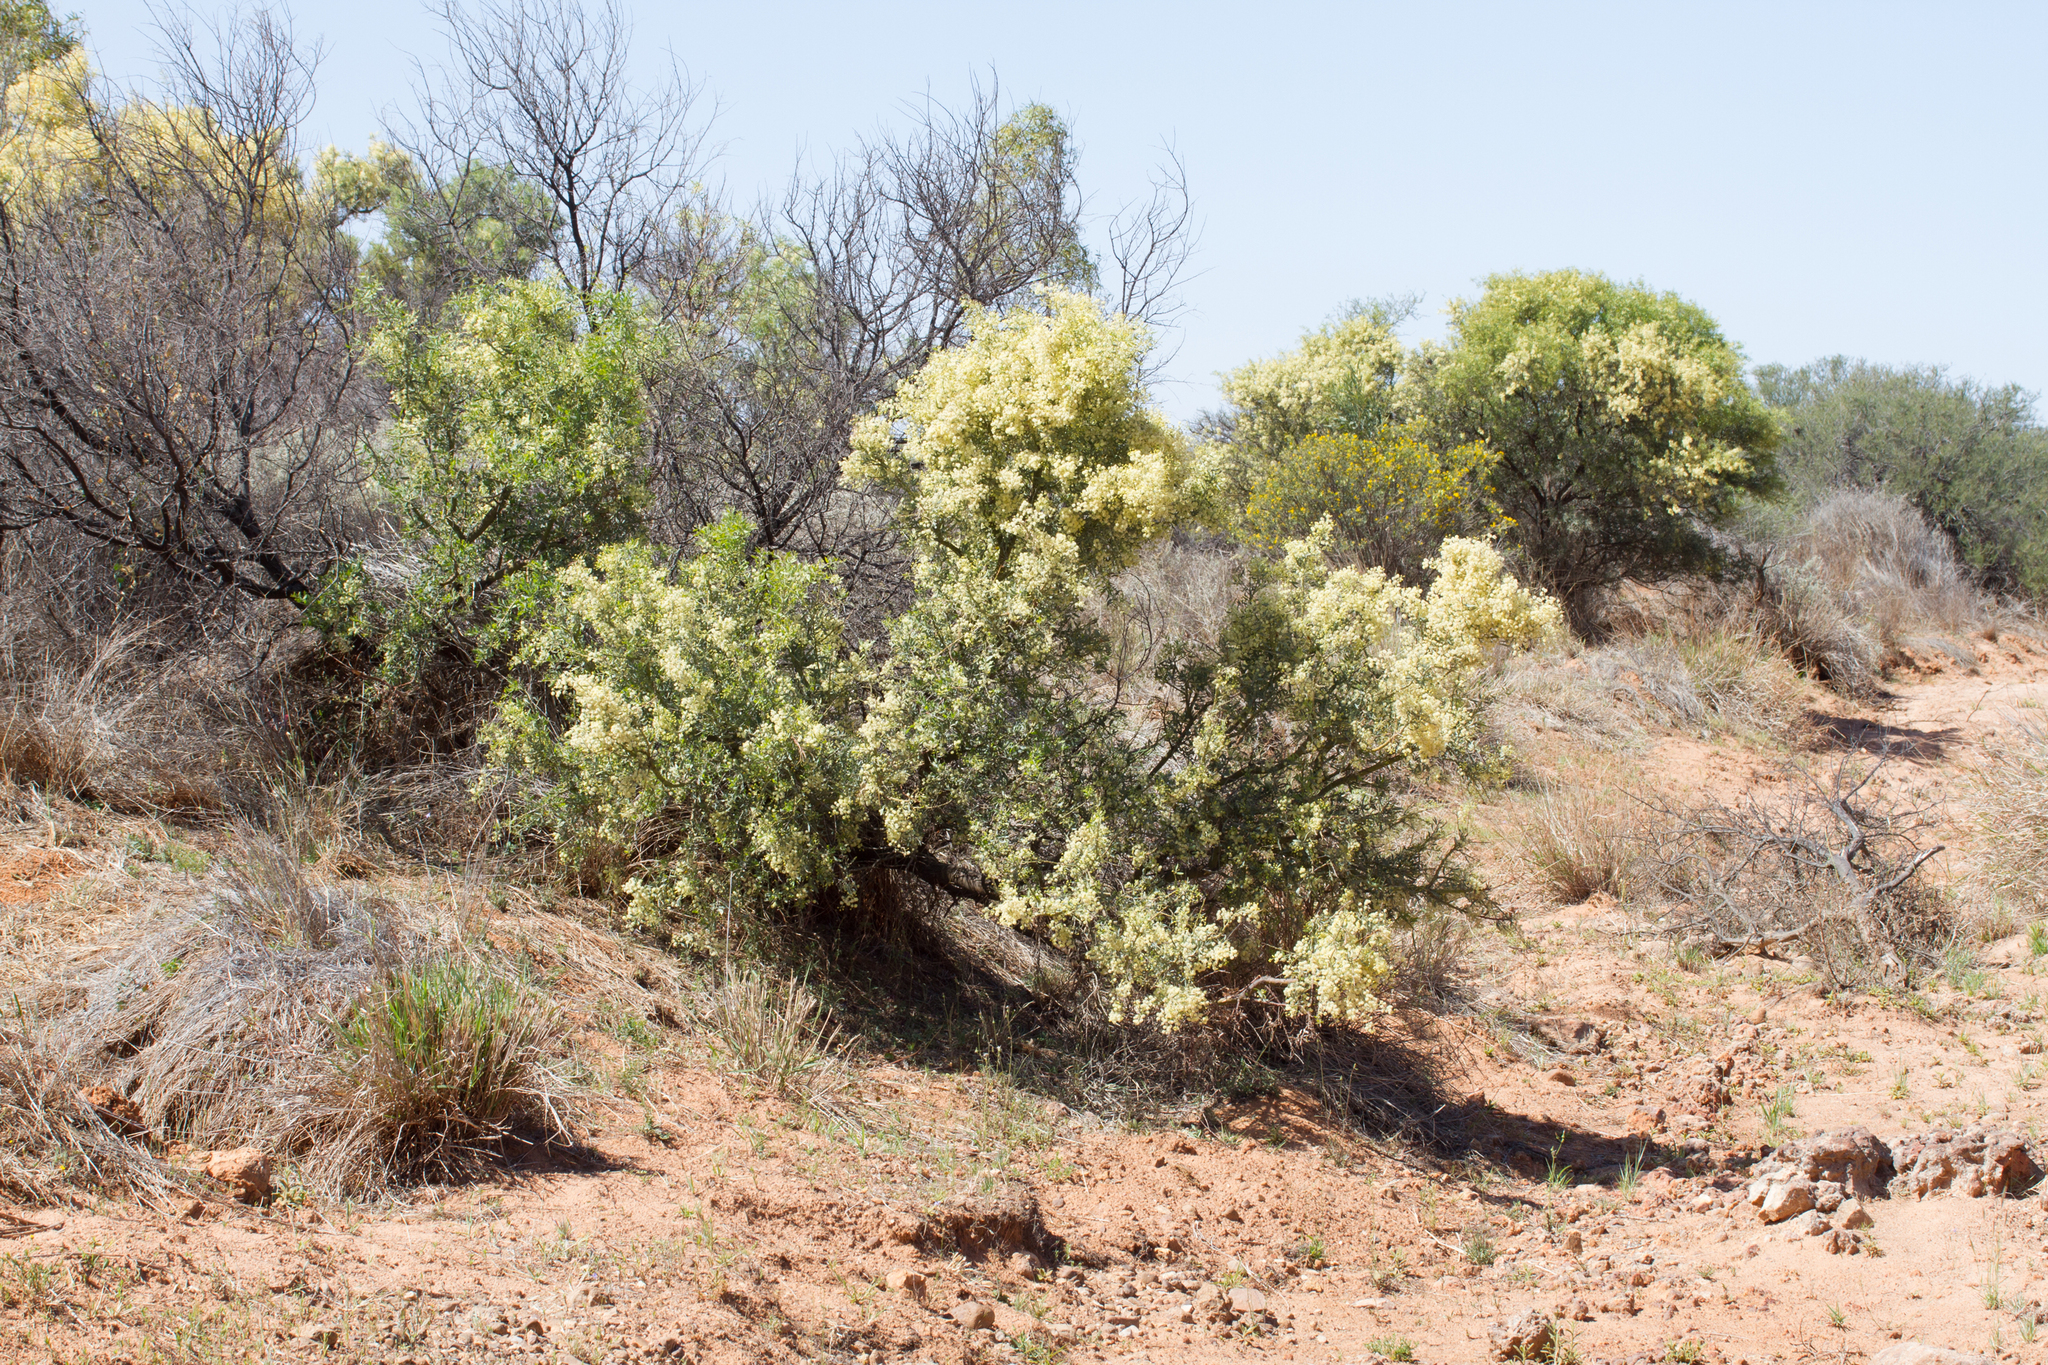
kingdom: Plantae
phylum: Tracheophyta
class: Magnoliopsida
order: Fabales
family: Fabaceae
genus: Acacia
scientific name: Acacia victoriae
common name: Bramble wattle
